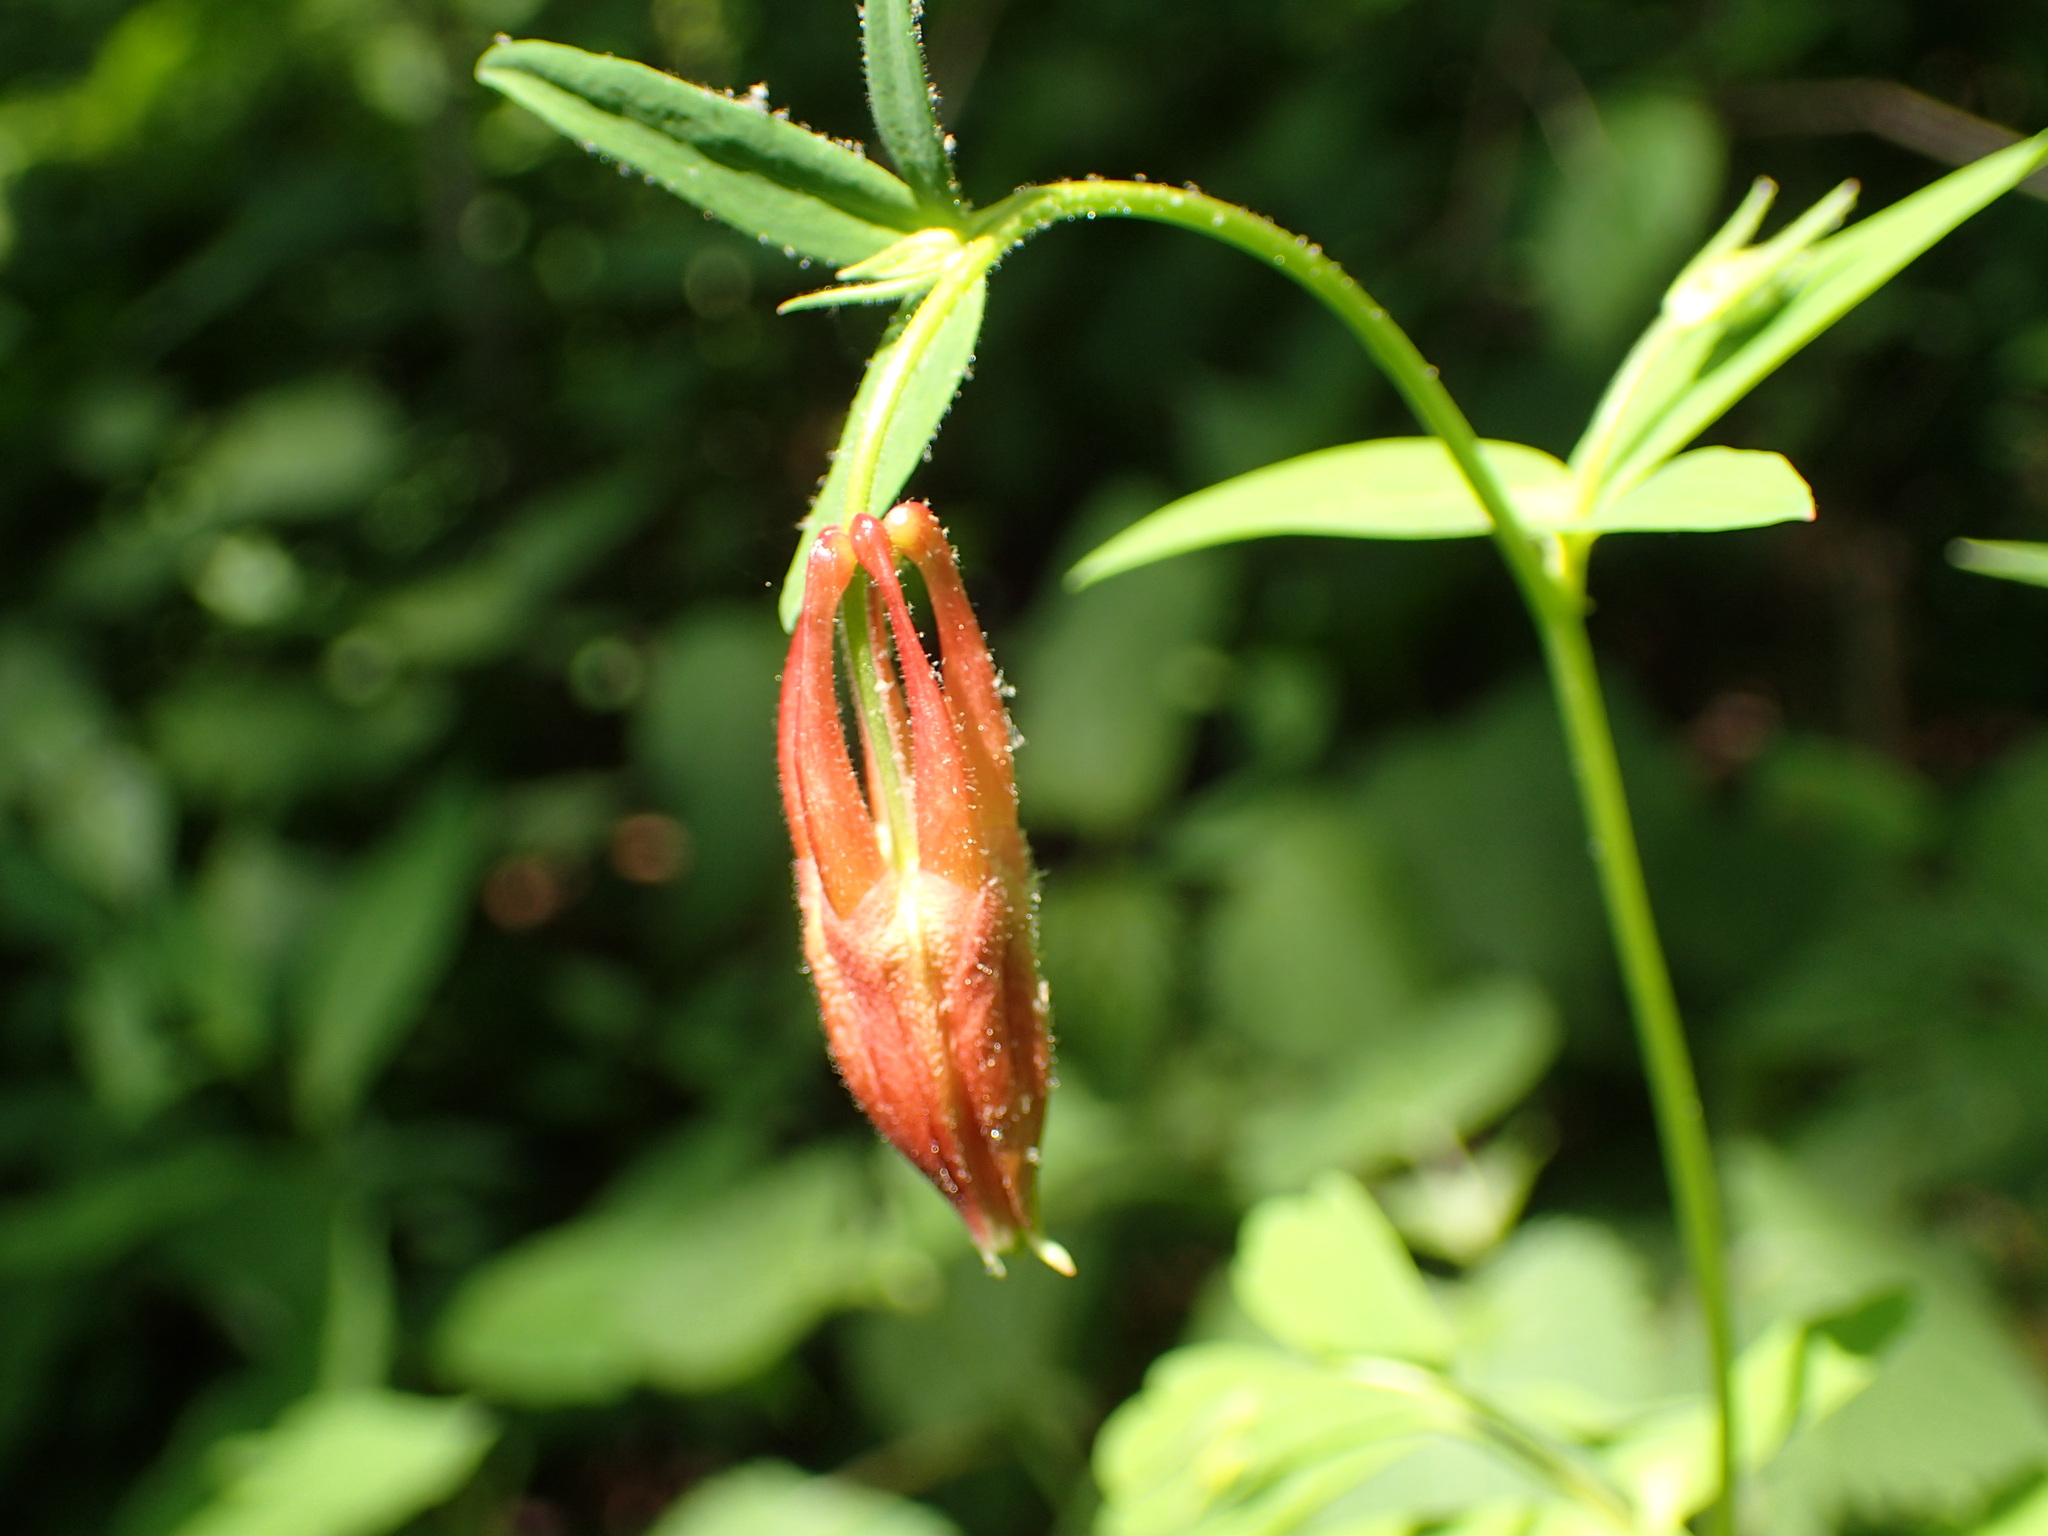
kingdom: Plantae
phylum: Tracheophyta
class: Magnoliopsida
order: Ranunculales
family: Ranunculaceae
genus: Aquilegia
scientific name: Aquilegia canadensis
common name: American columbine
